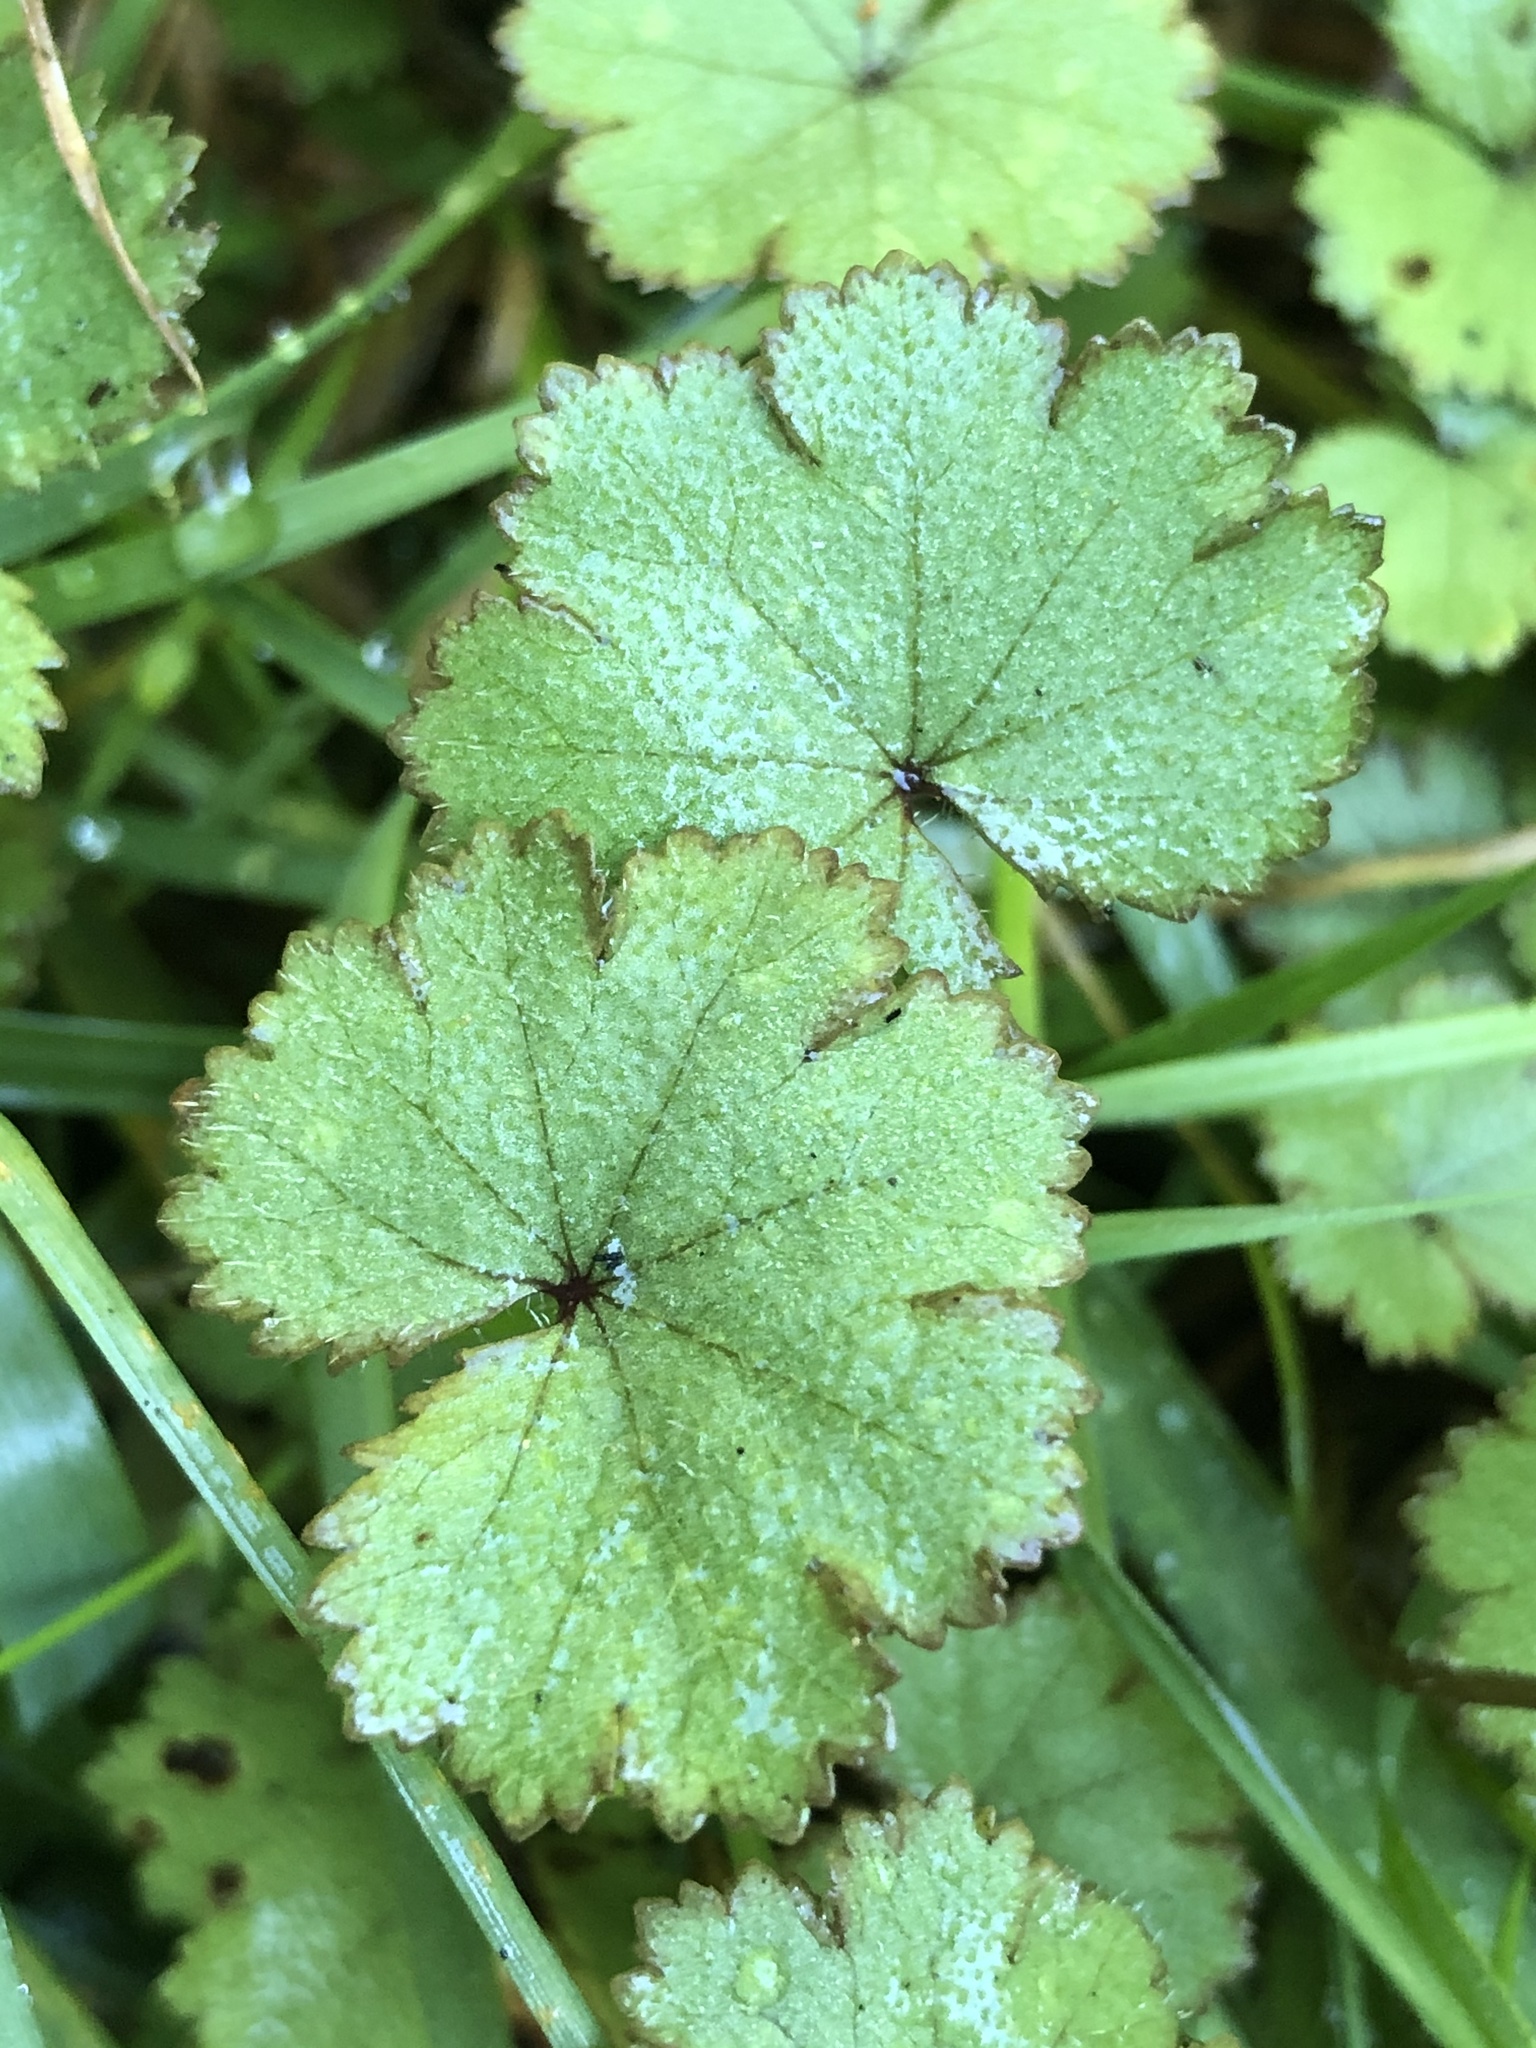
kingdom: Plantae
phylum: Tracheophyta
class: Magnoliopsida
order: Apiales
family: Araliaceae
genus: Hydrocotyle
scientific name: Hydrocotyle moschata
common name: Hairy pennywort
